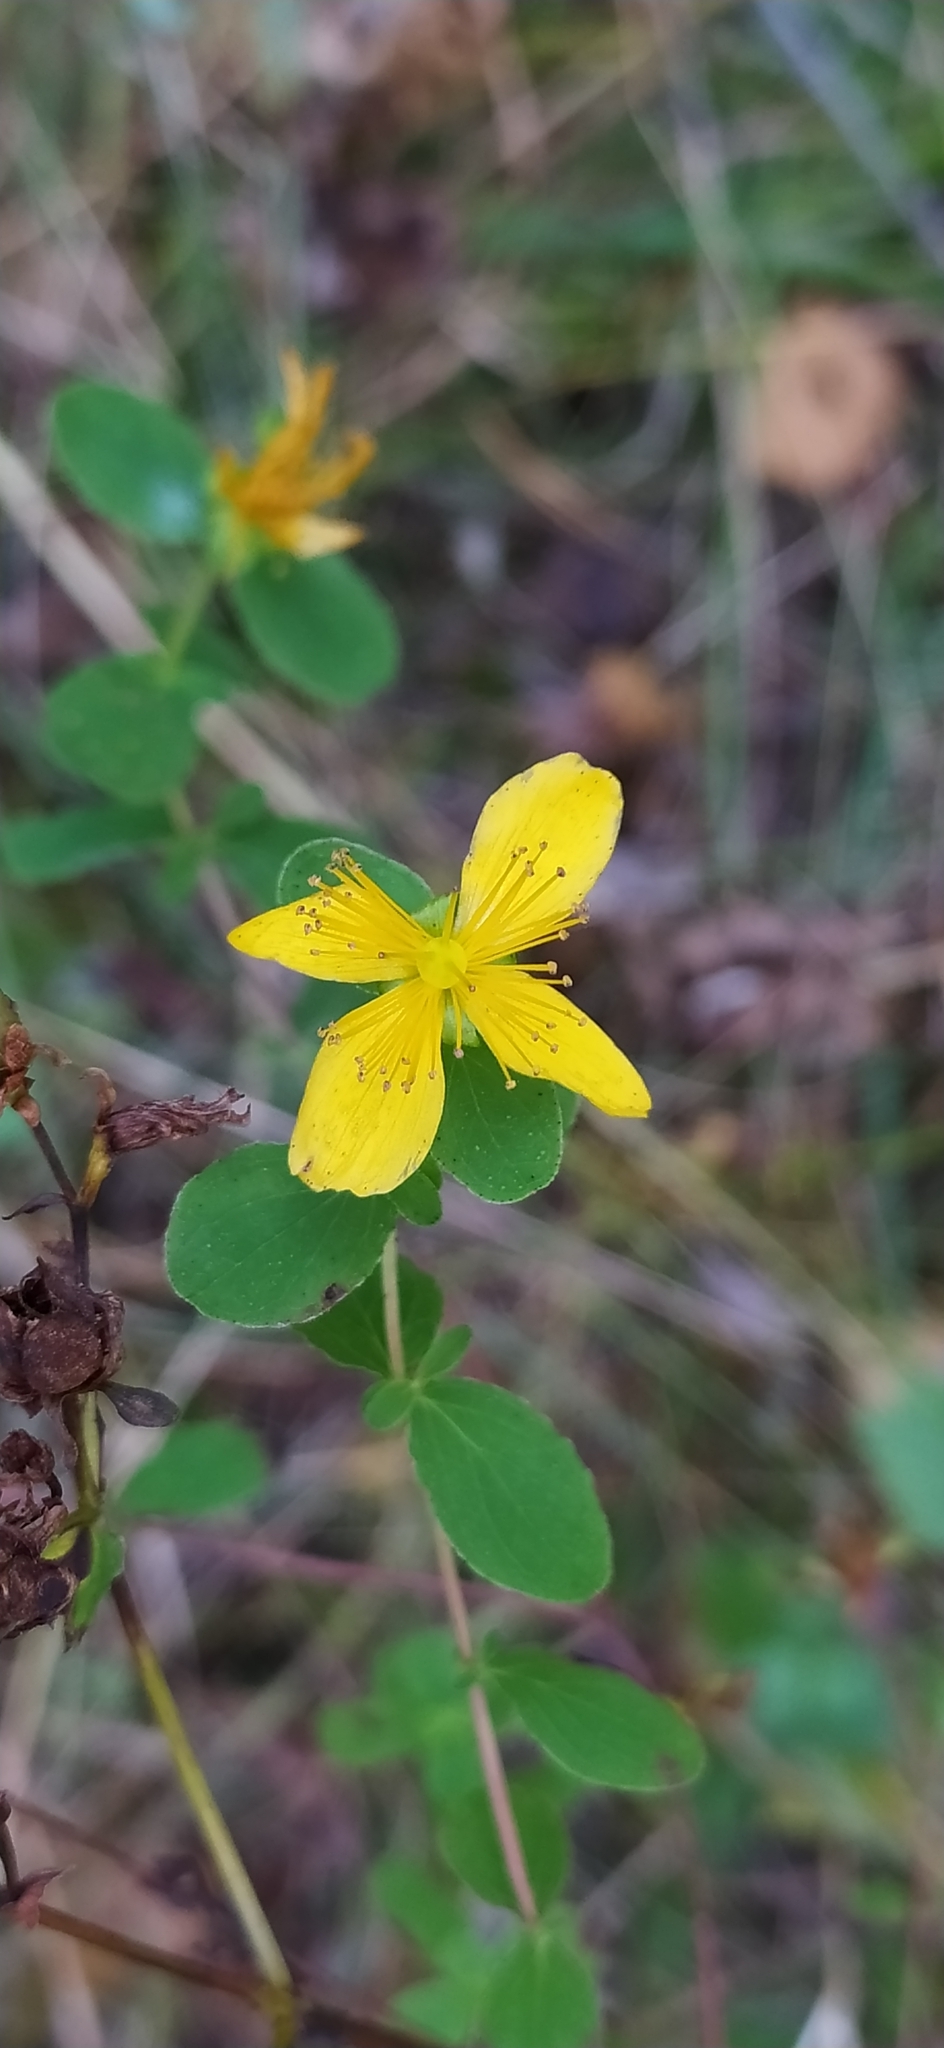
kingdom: Plantae
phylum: Tracheophyta
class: Magnoliopsida
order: Malpighiales
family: Hypericaceae
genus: Hypericum
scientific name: Hypericum maculatum
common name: Imperforate st. john's-wort
